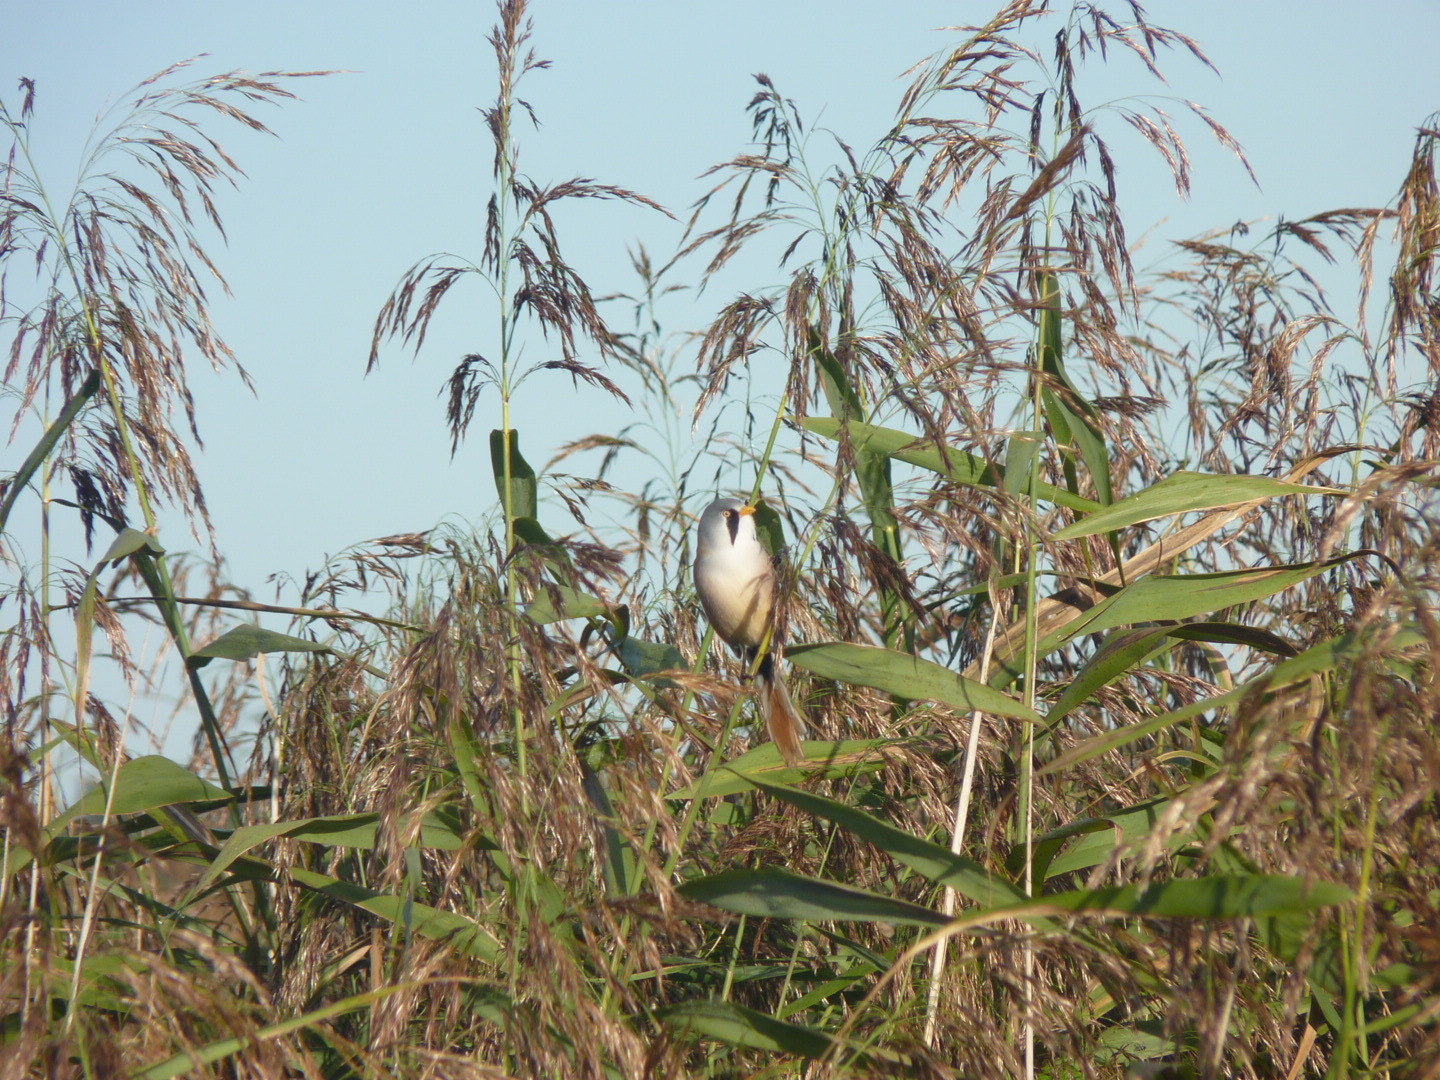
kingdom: Animalia
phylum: Chordata
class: Aves
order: Passeriformes
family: Panuridae
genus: Panurus
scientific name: Panurus biarmicus
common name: Bearded reedling
